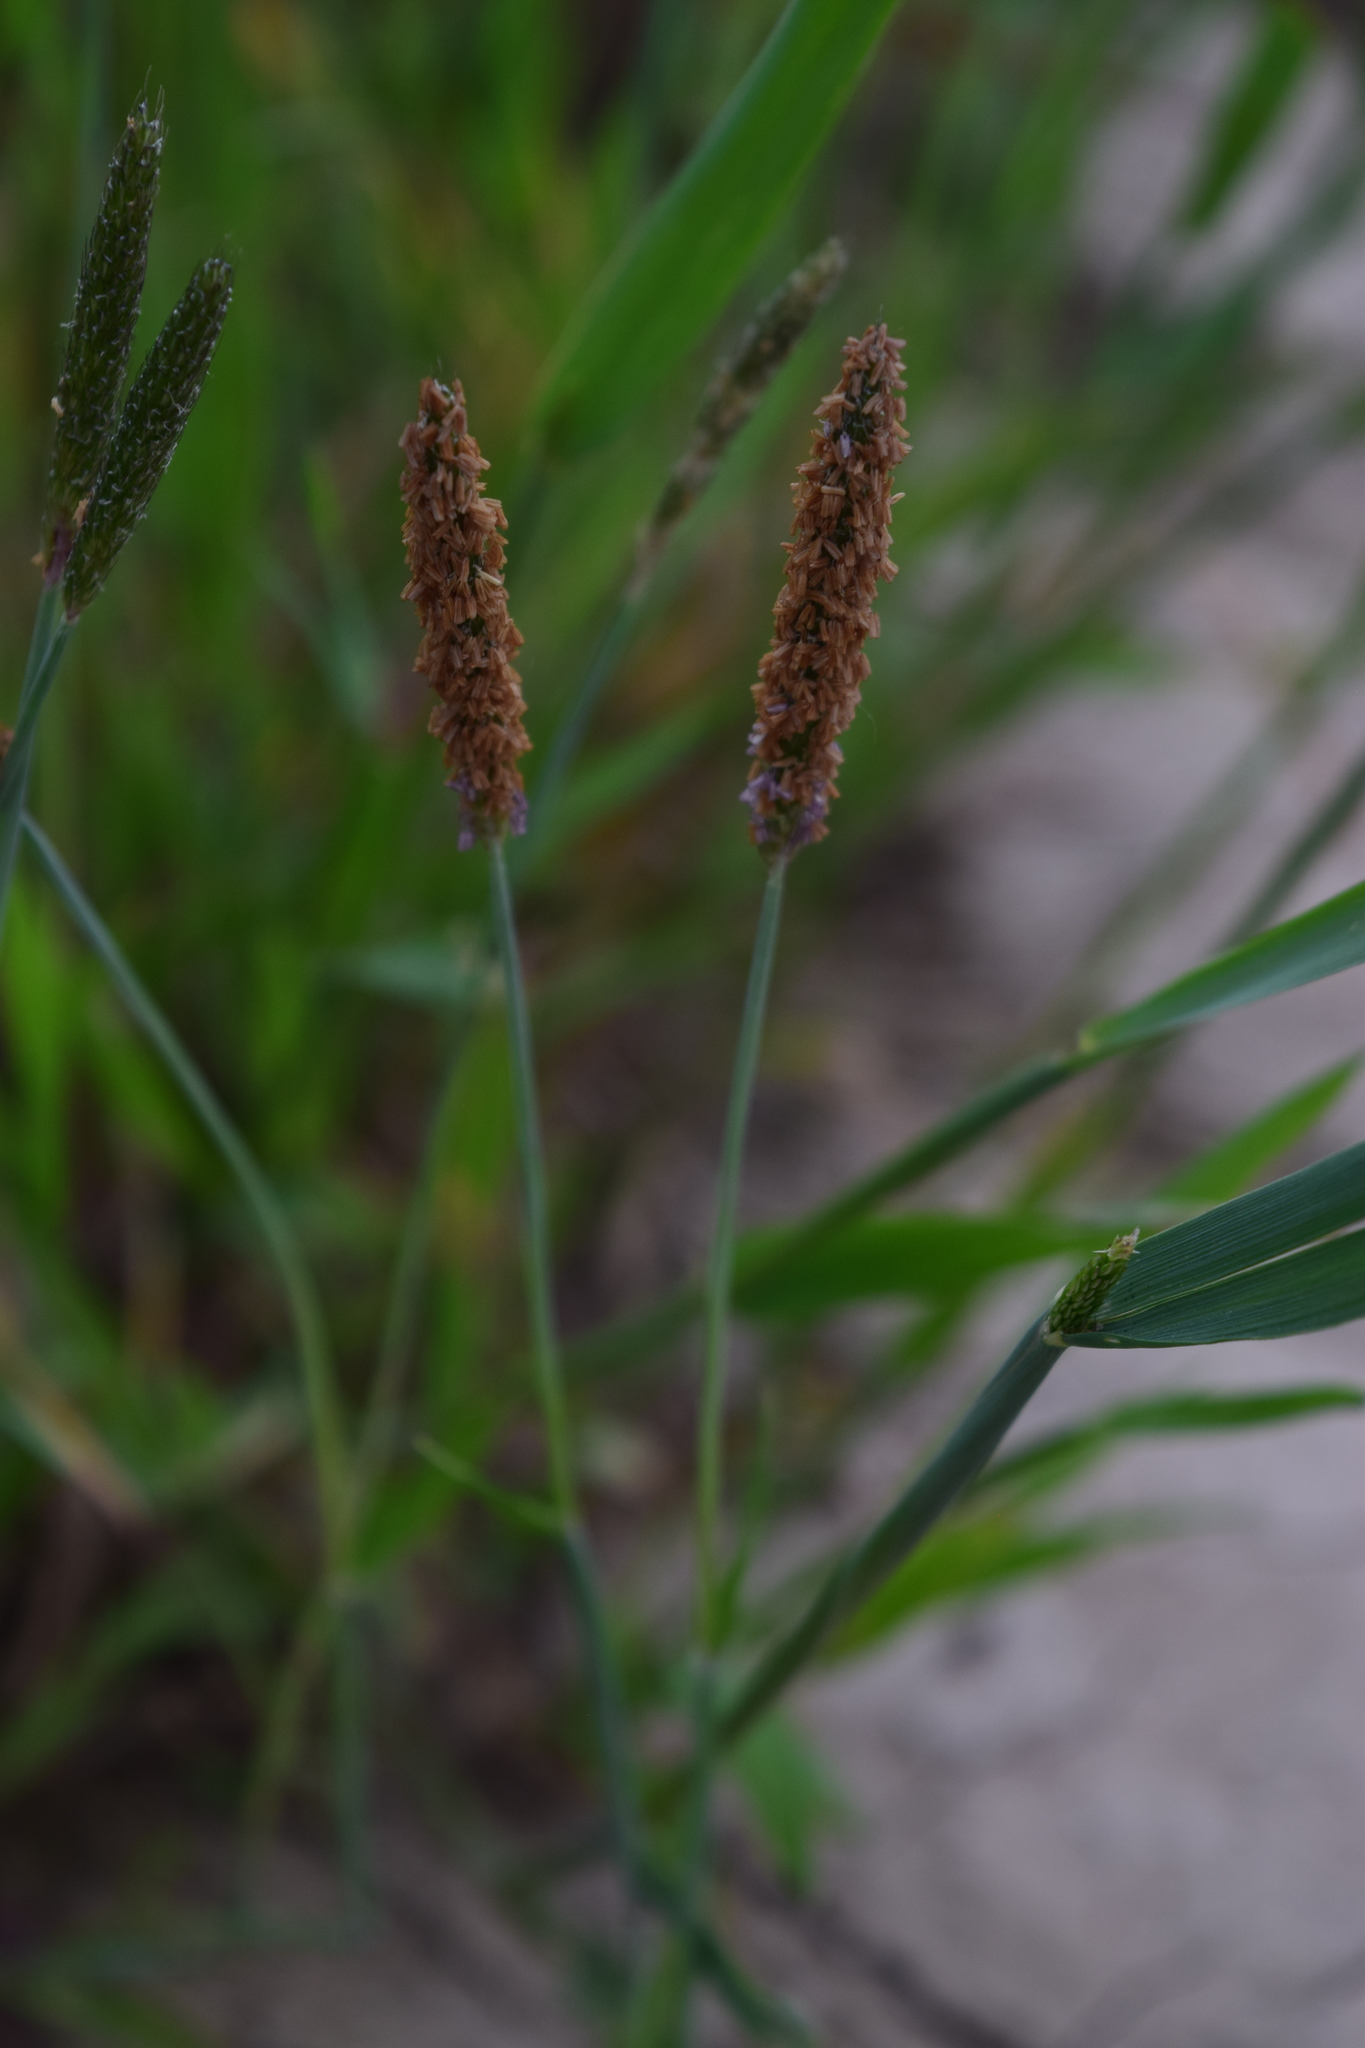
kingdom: Plantae
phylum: Tracheophyta
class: Liliopsida
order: Poales
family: Poaceae
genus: Alopecurus
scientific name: Alopecurus geniculatus
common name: Water foxtail
